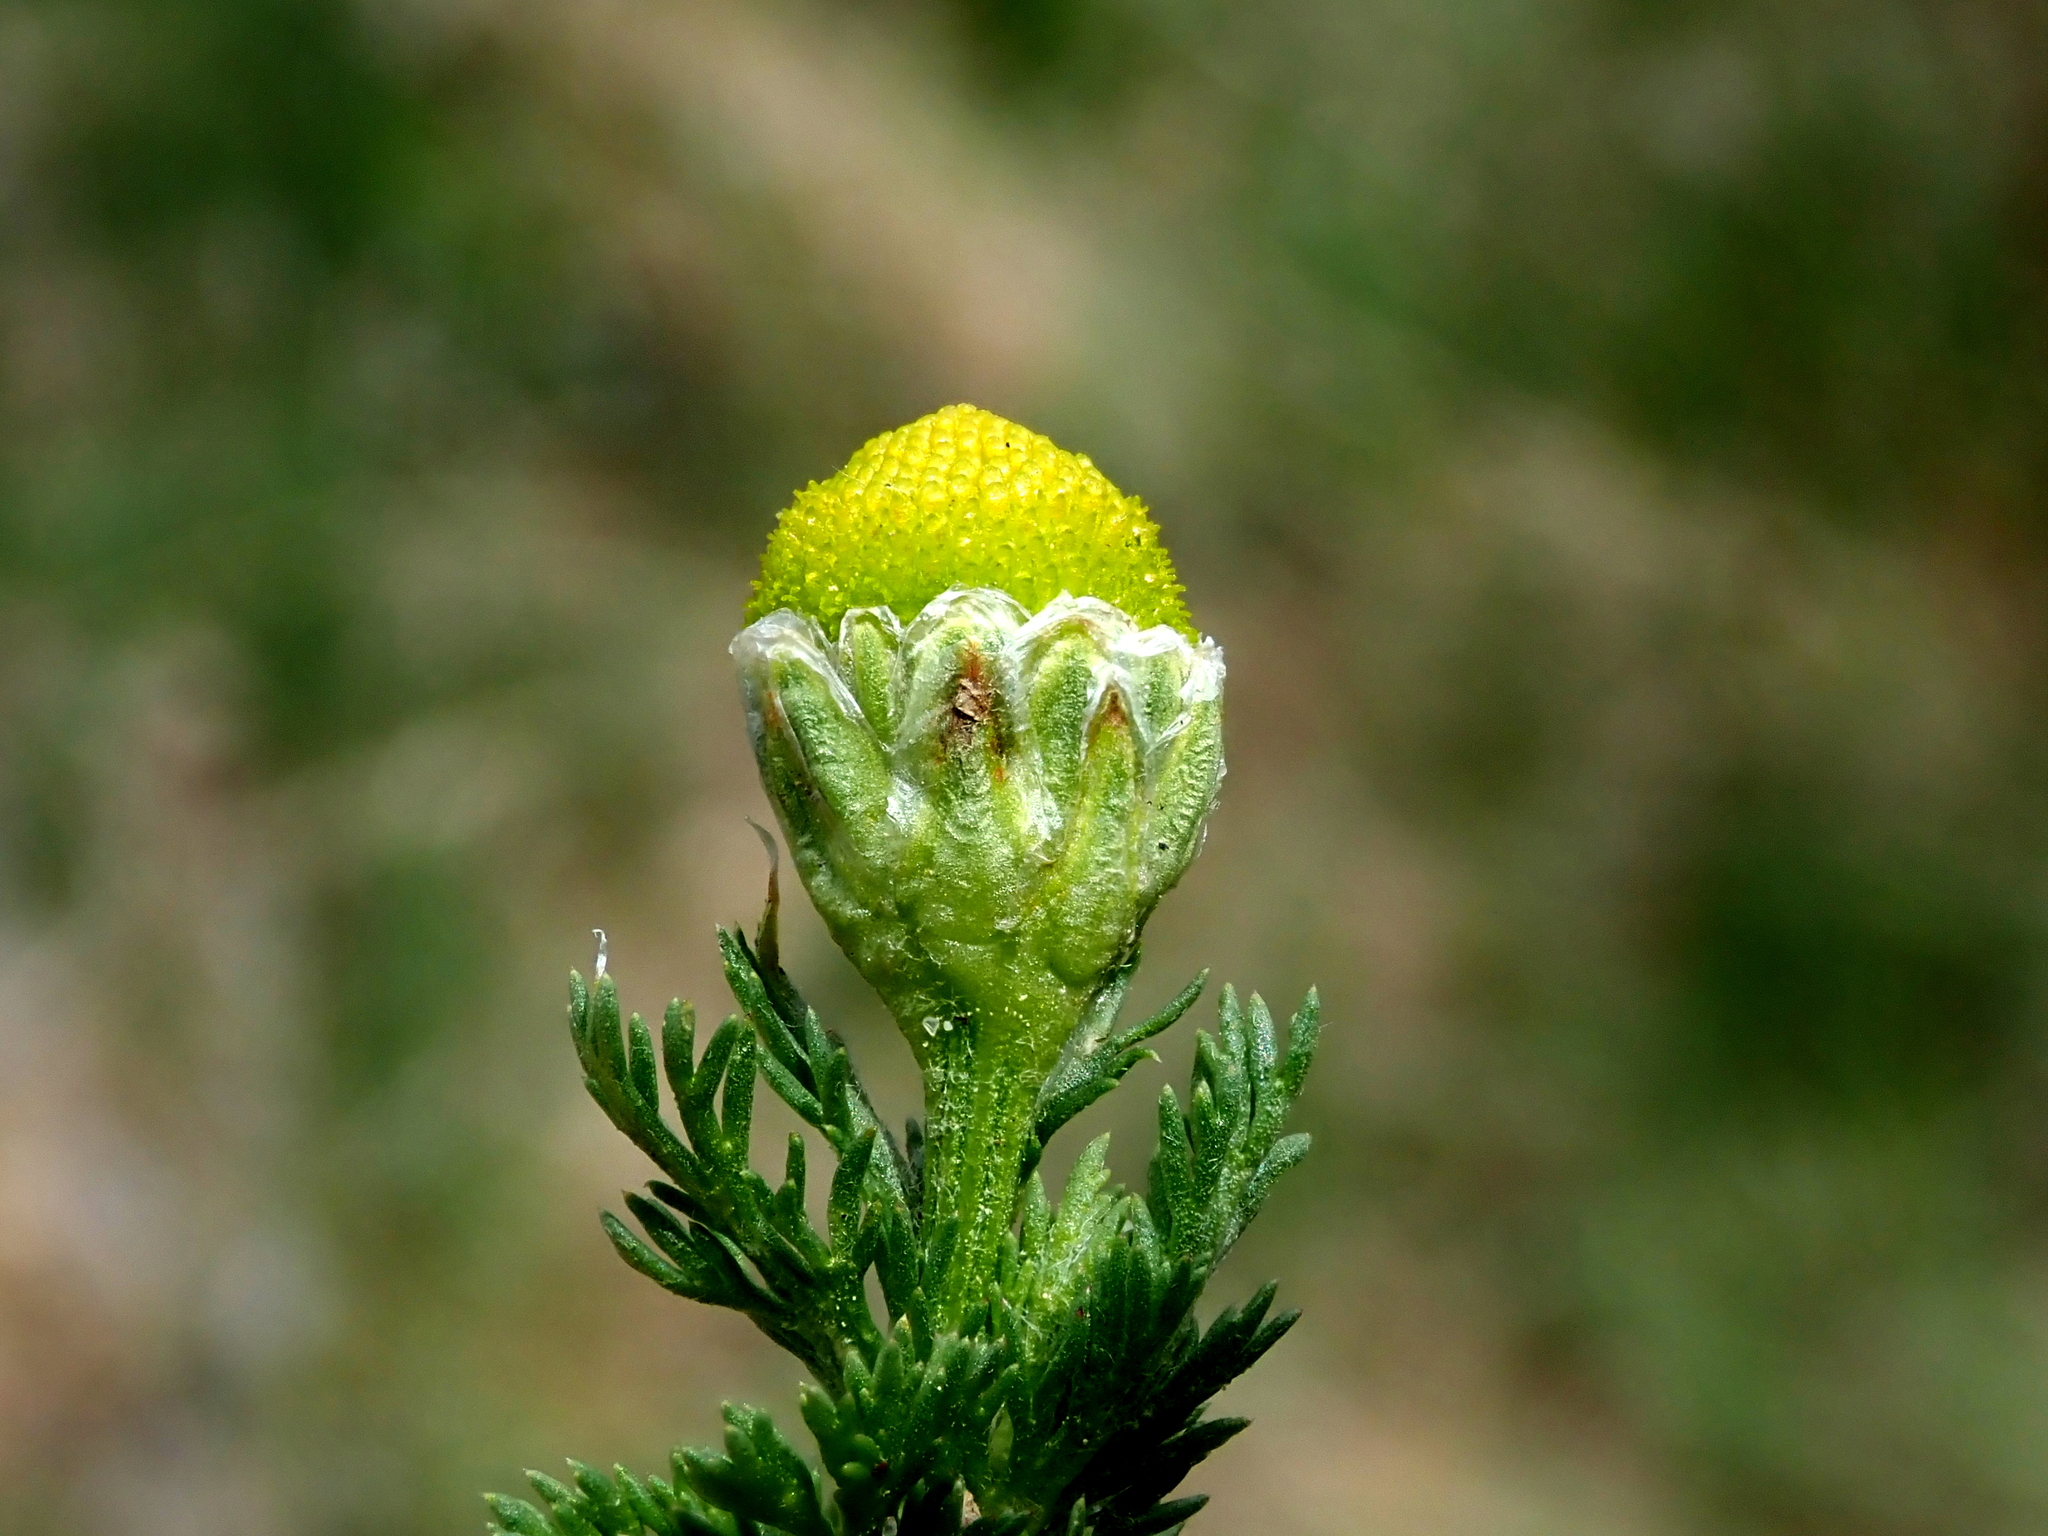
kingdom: Plantae
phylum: Tracheophyta
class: Magnoliopsida
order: Asterales
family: Asteraceae
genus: Matricaria
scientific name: Matricaria discoidea
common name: Disc mayweed
